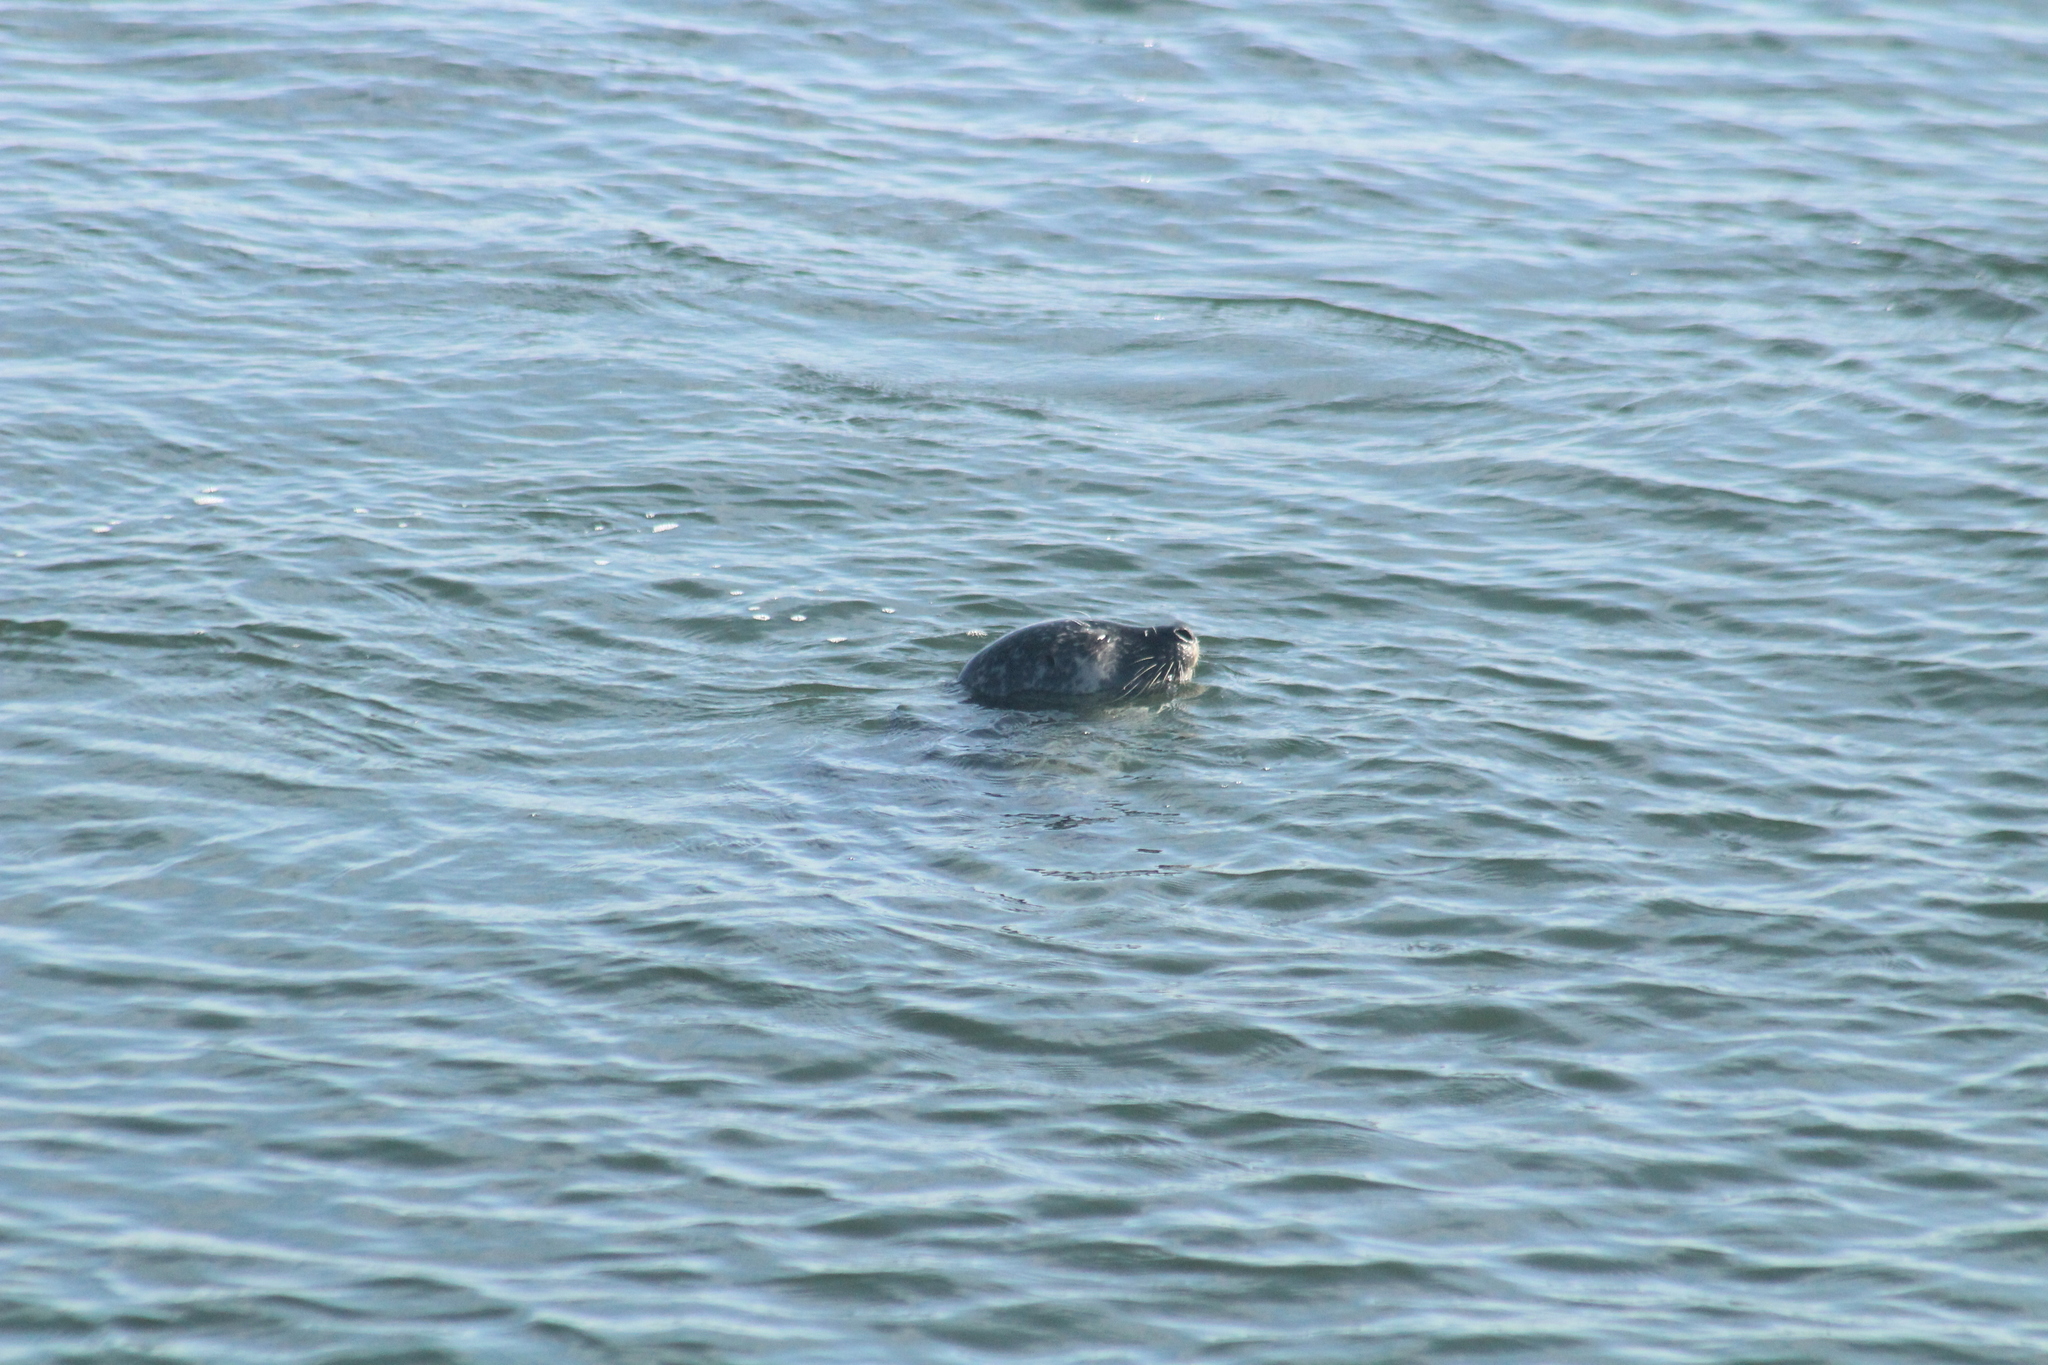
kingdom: Animalia
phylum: Chordata
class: Mammalia
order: Carnivora
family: Phocidae
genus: Phoca
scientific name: Phoca vitulina
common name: Harbor seal
